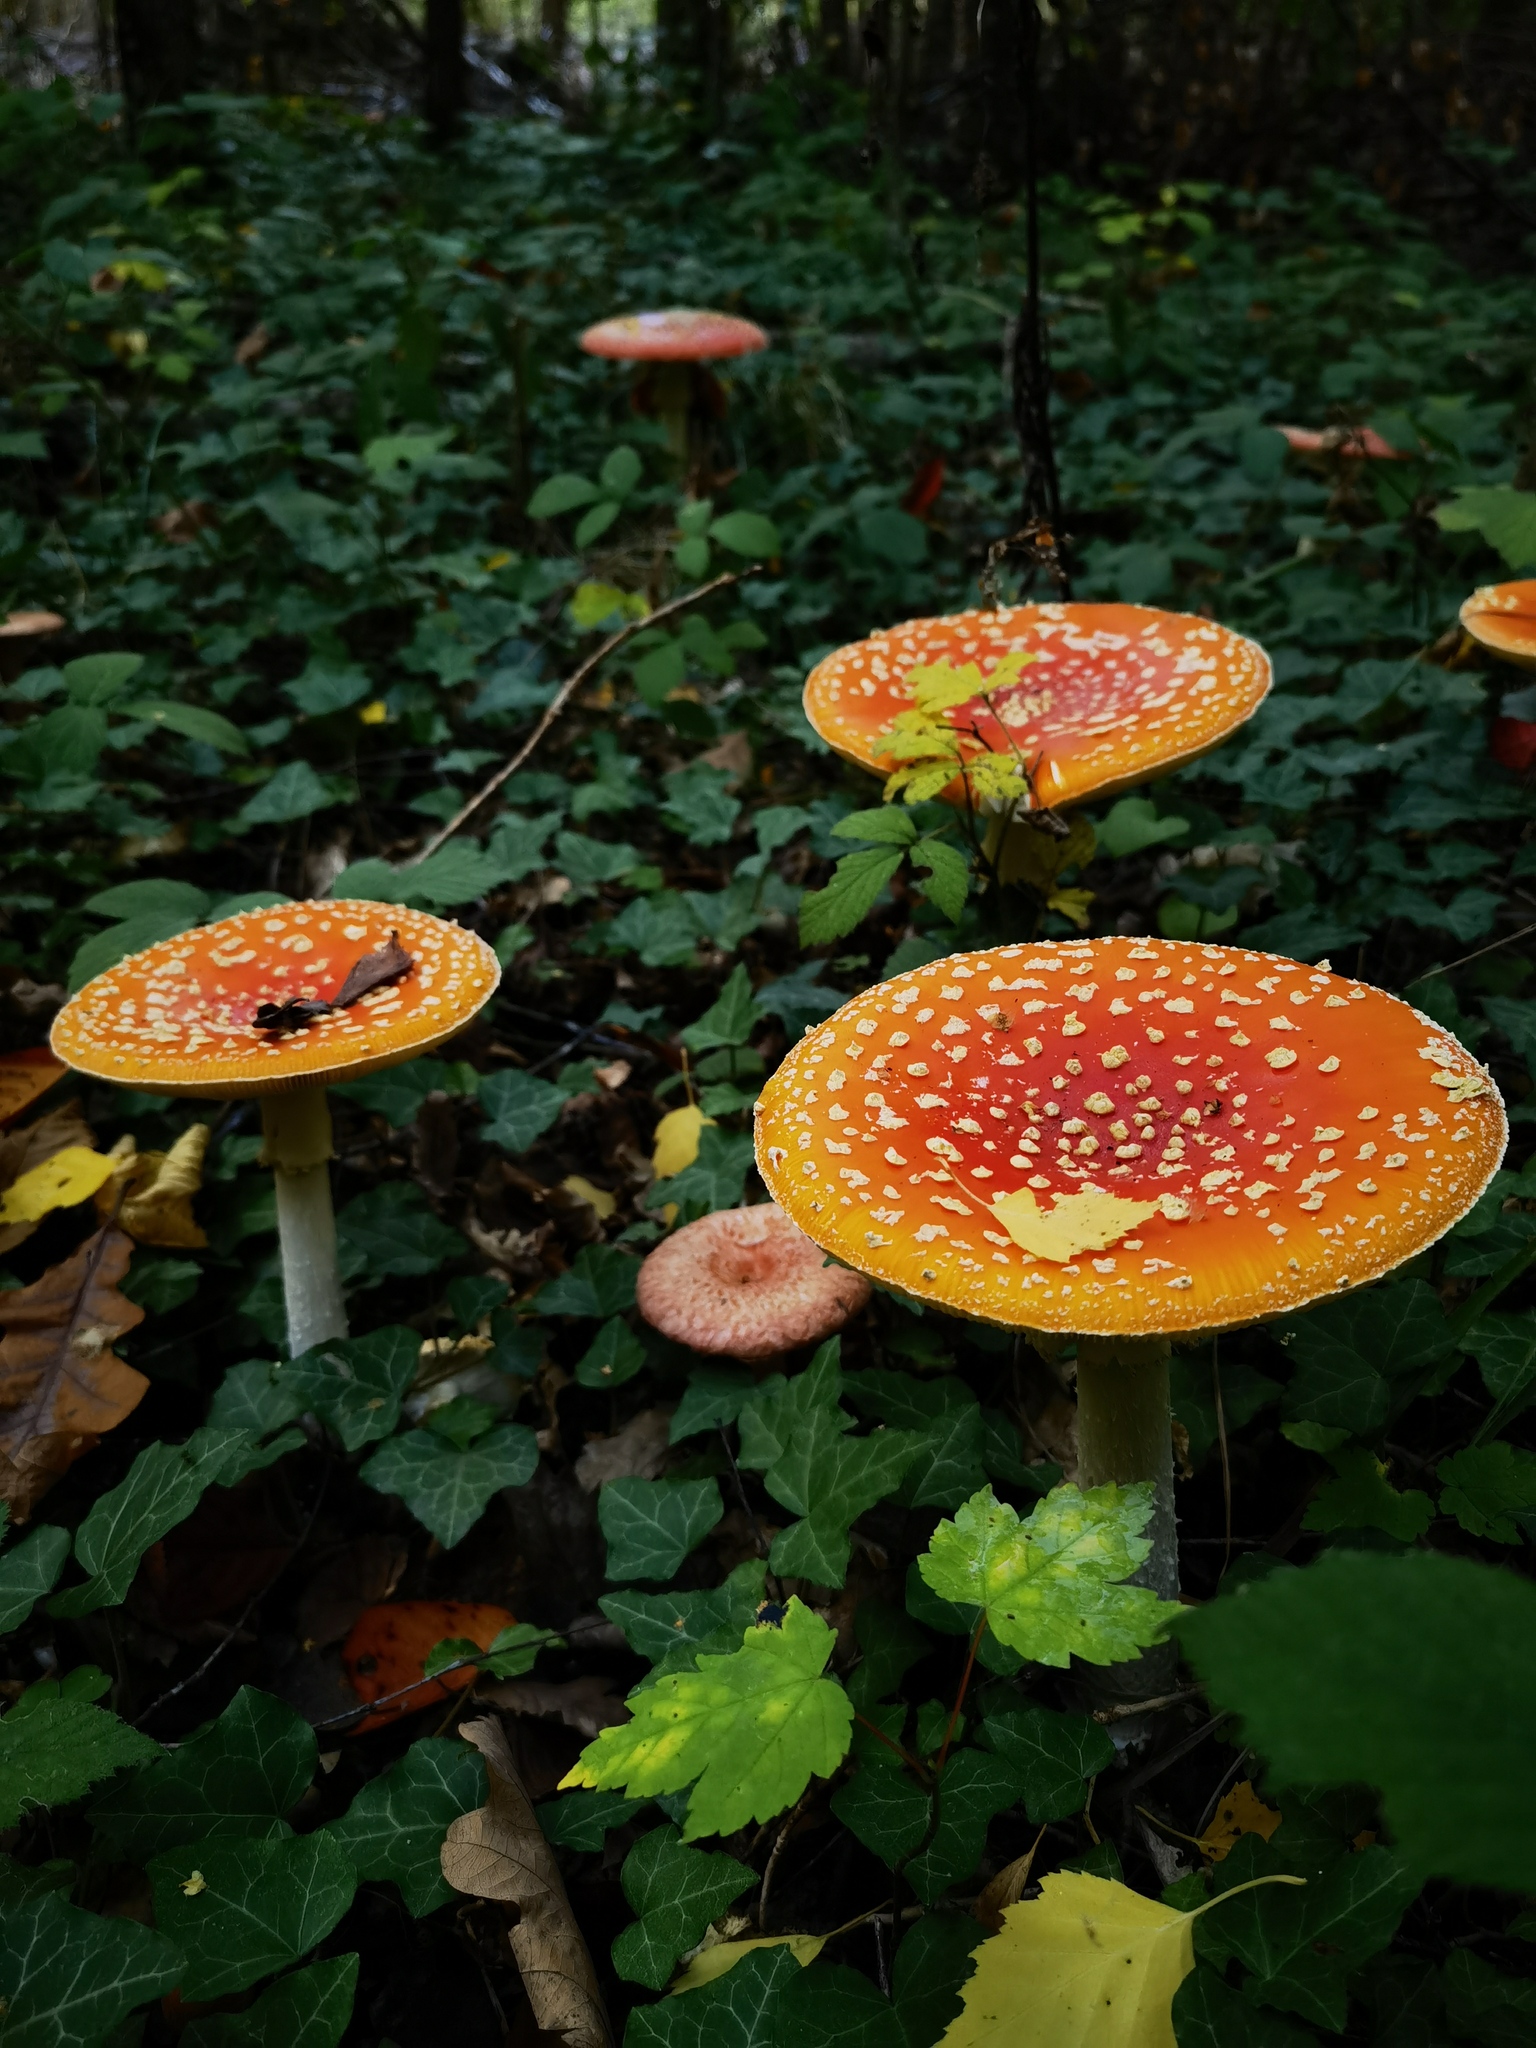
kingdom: Fungi
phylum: Basidiomycota
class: Agaricomycetes
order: Agaricales
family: Amanitaceae
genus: Amanita
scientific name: Amanita muscaria
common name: Fly agaric
